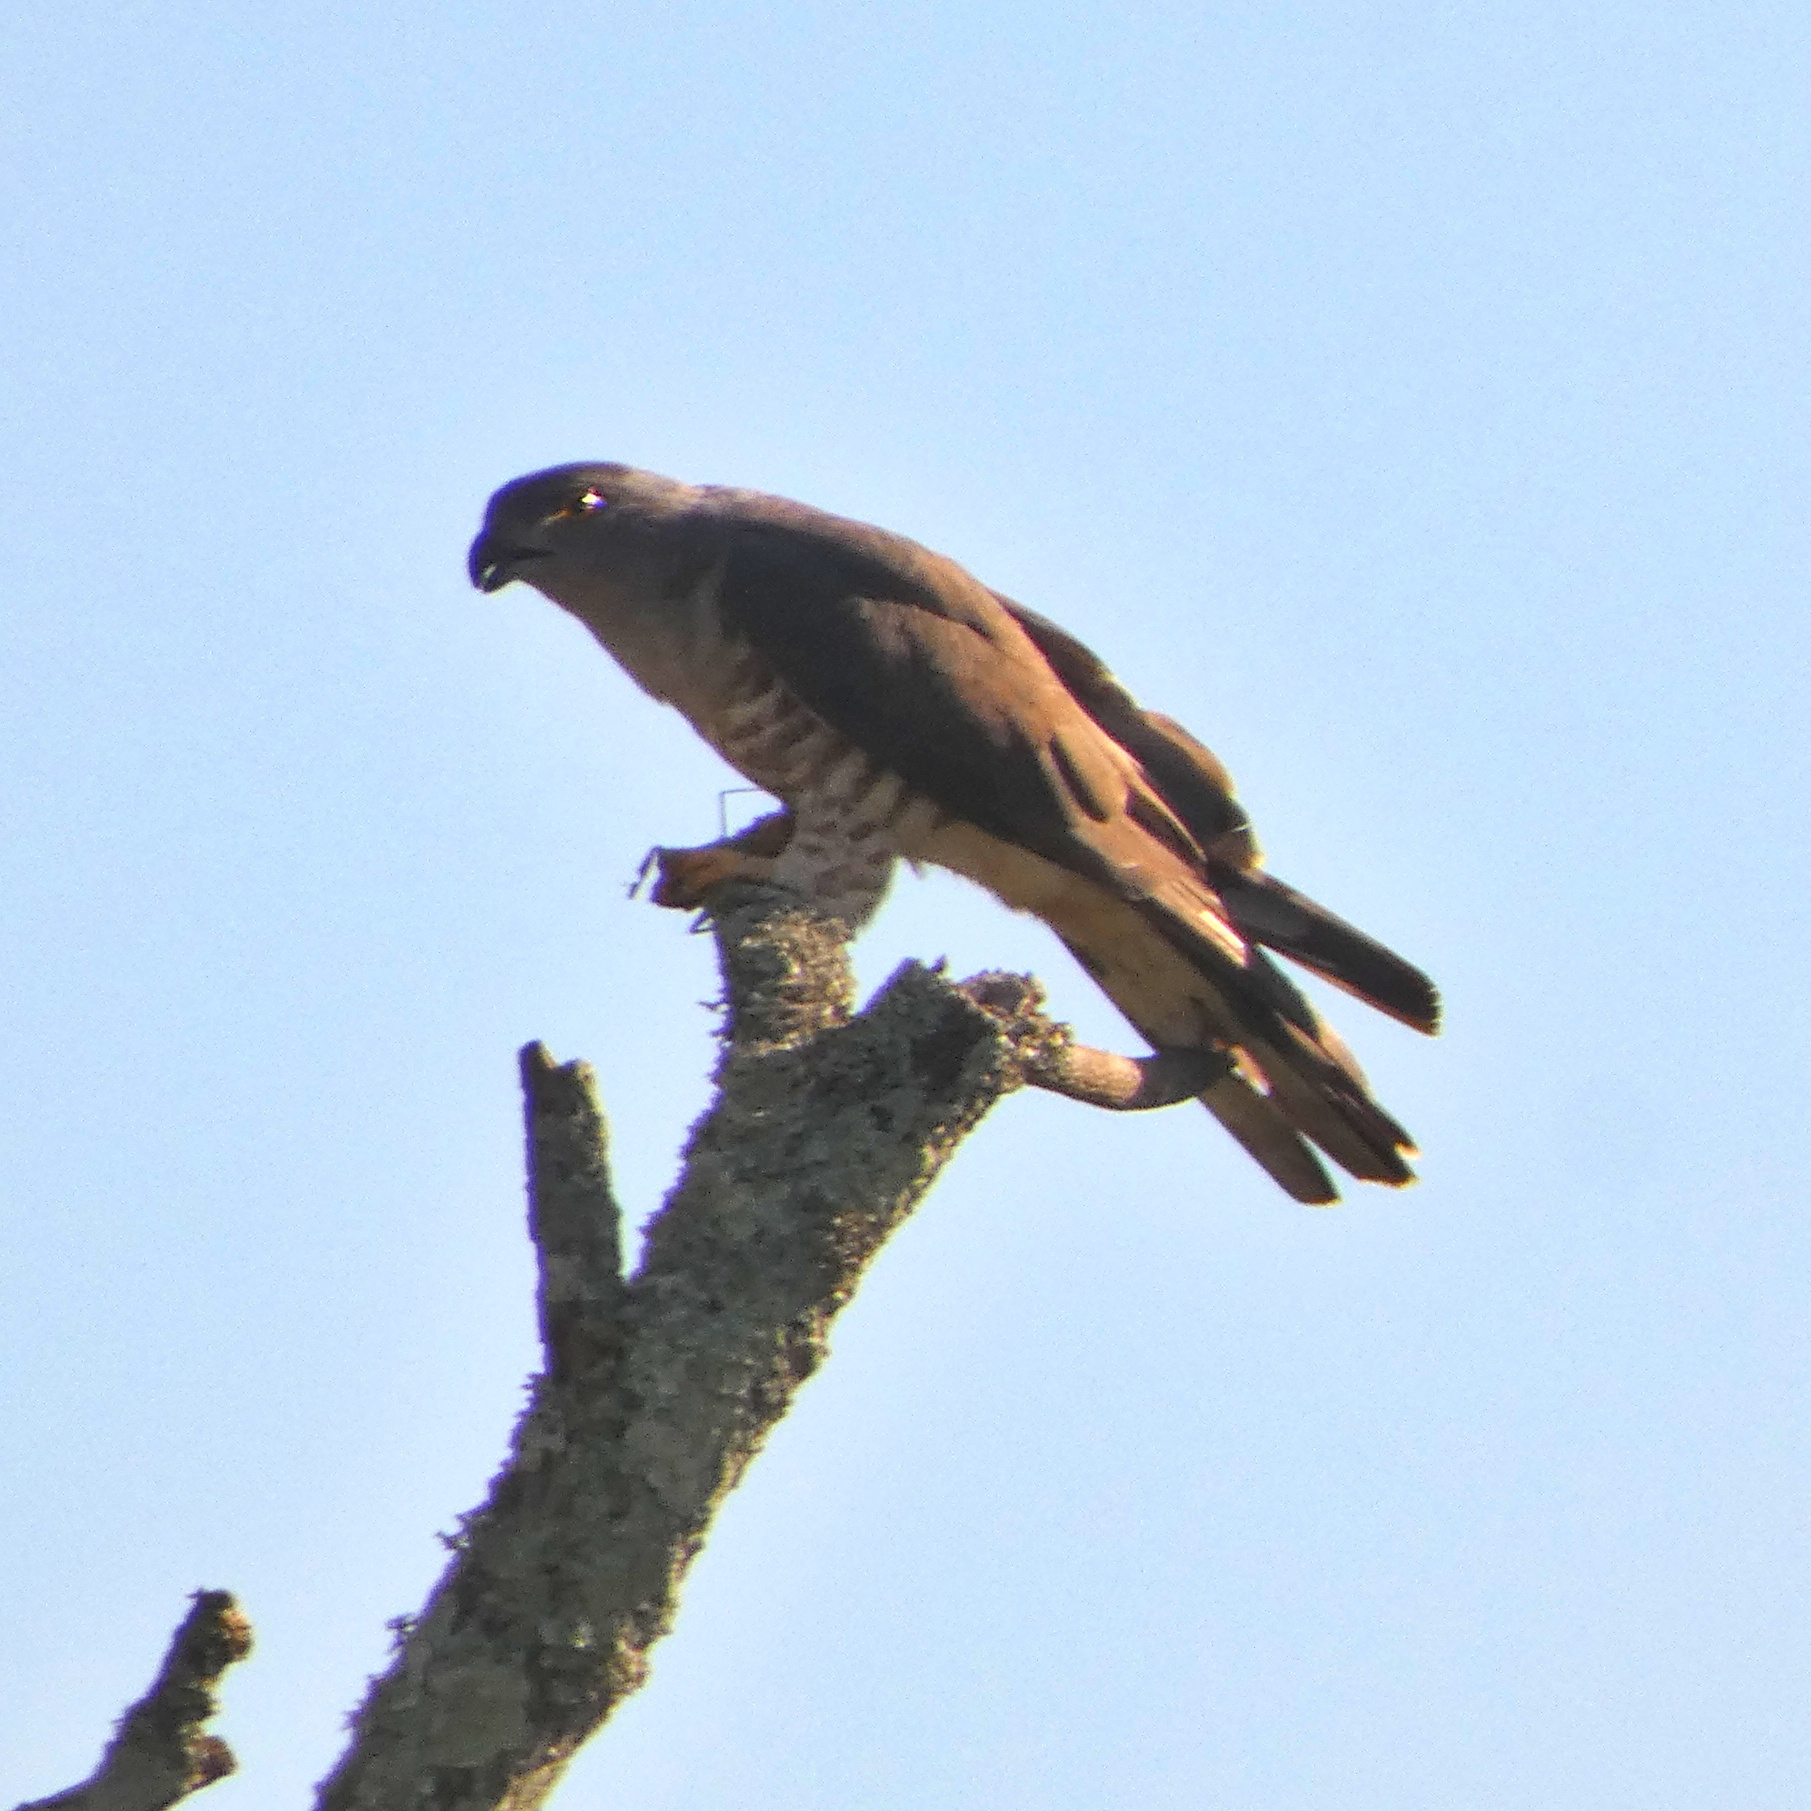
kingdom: Animalia
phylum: Chordata
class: Aves
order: Accipitriformes
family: Accipitridae
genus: Aviceda
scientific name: Aviceda cuculoides
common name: African cuckoo-hawk
